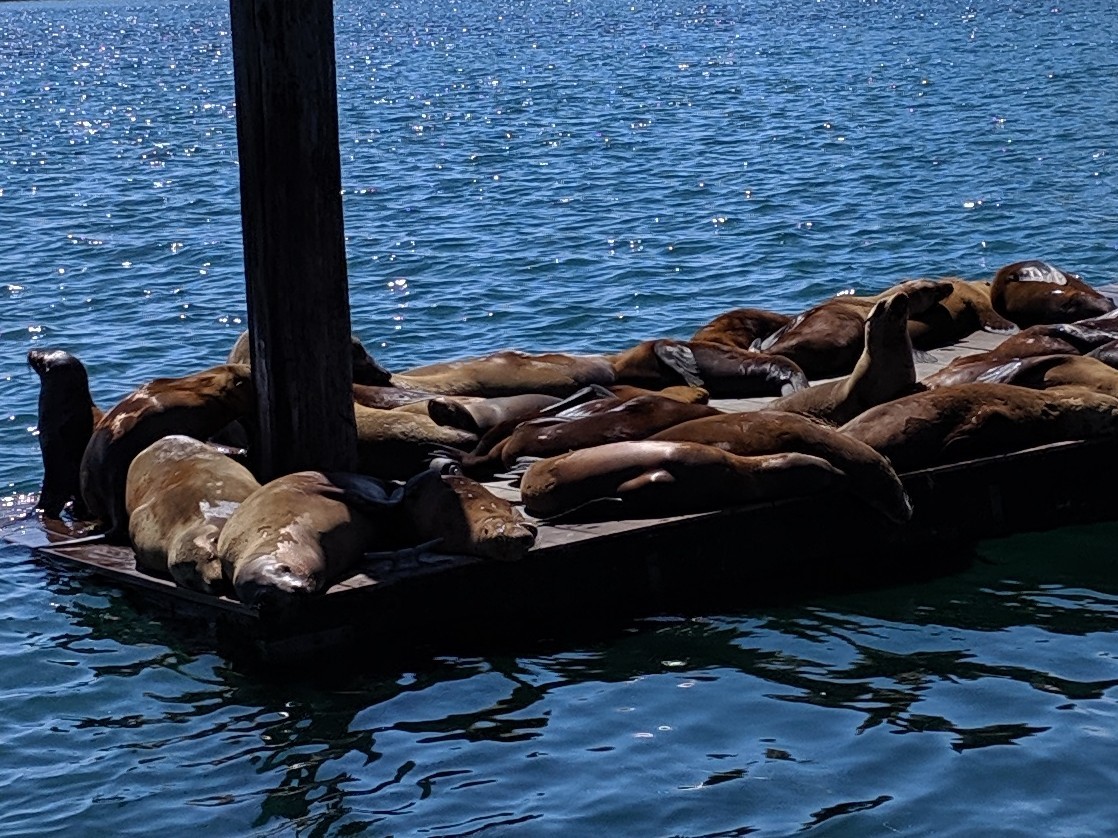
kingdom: Animalia
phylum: Chordata
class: Mammalia
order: Carnivora
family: Otariidae
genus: Zalophus
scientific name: Zalophus californianus
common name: California sea lion
